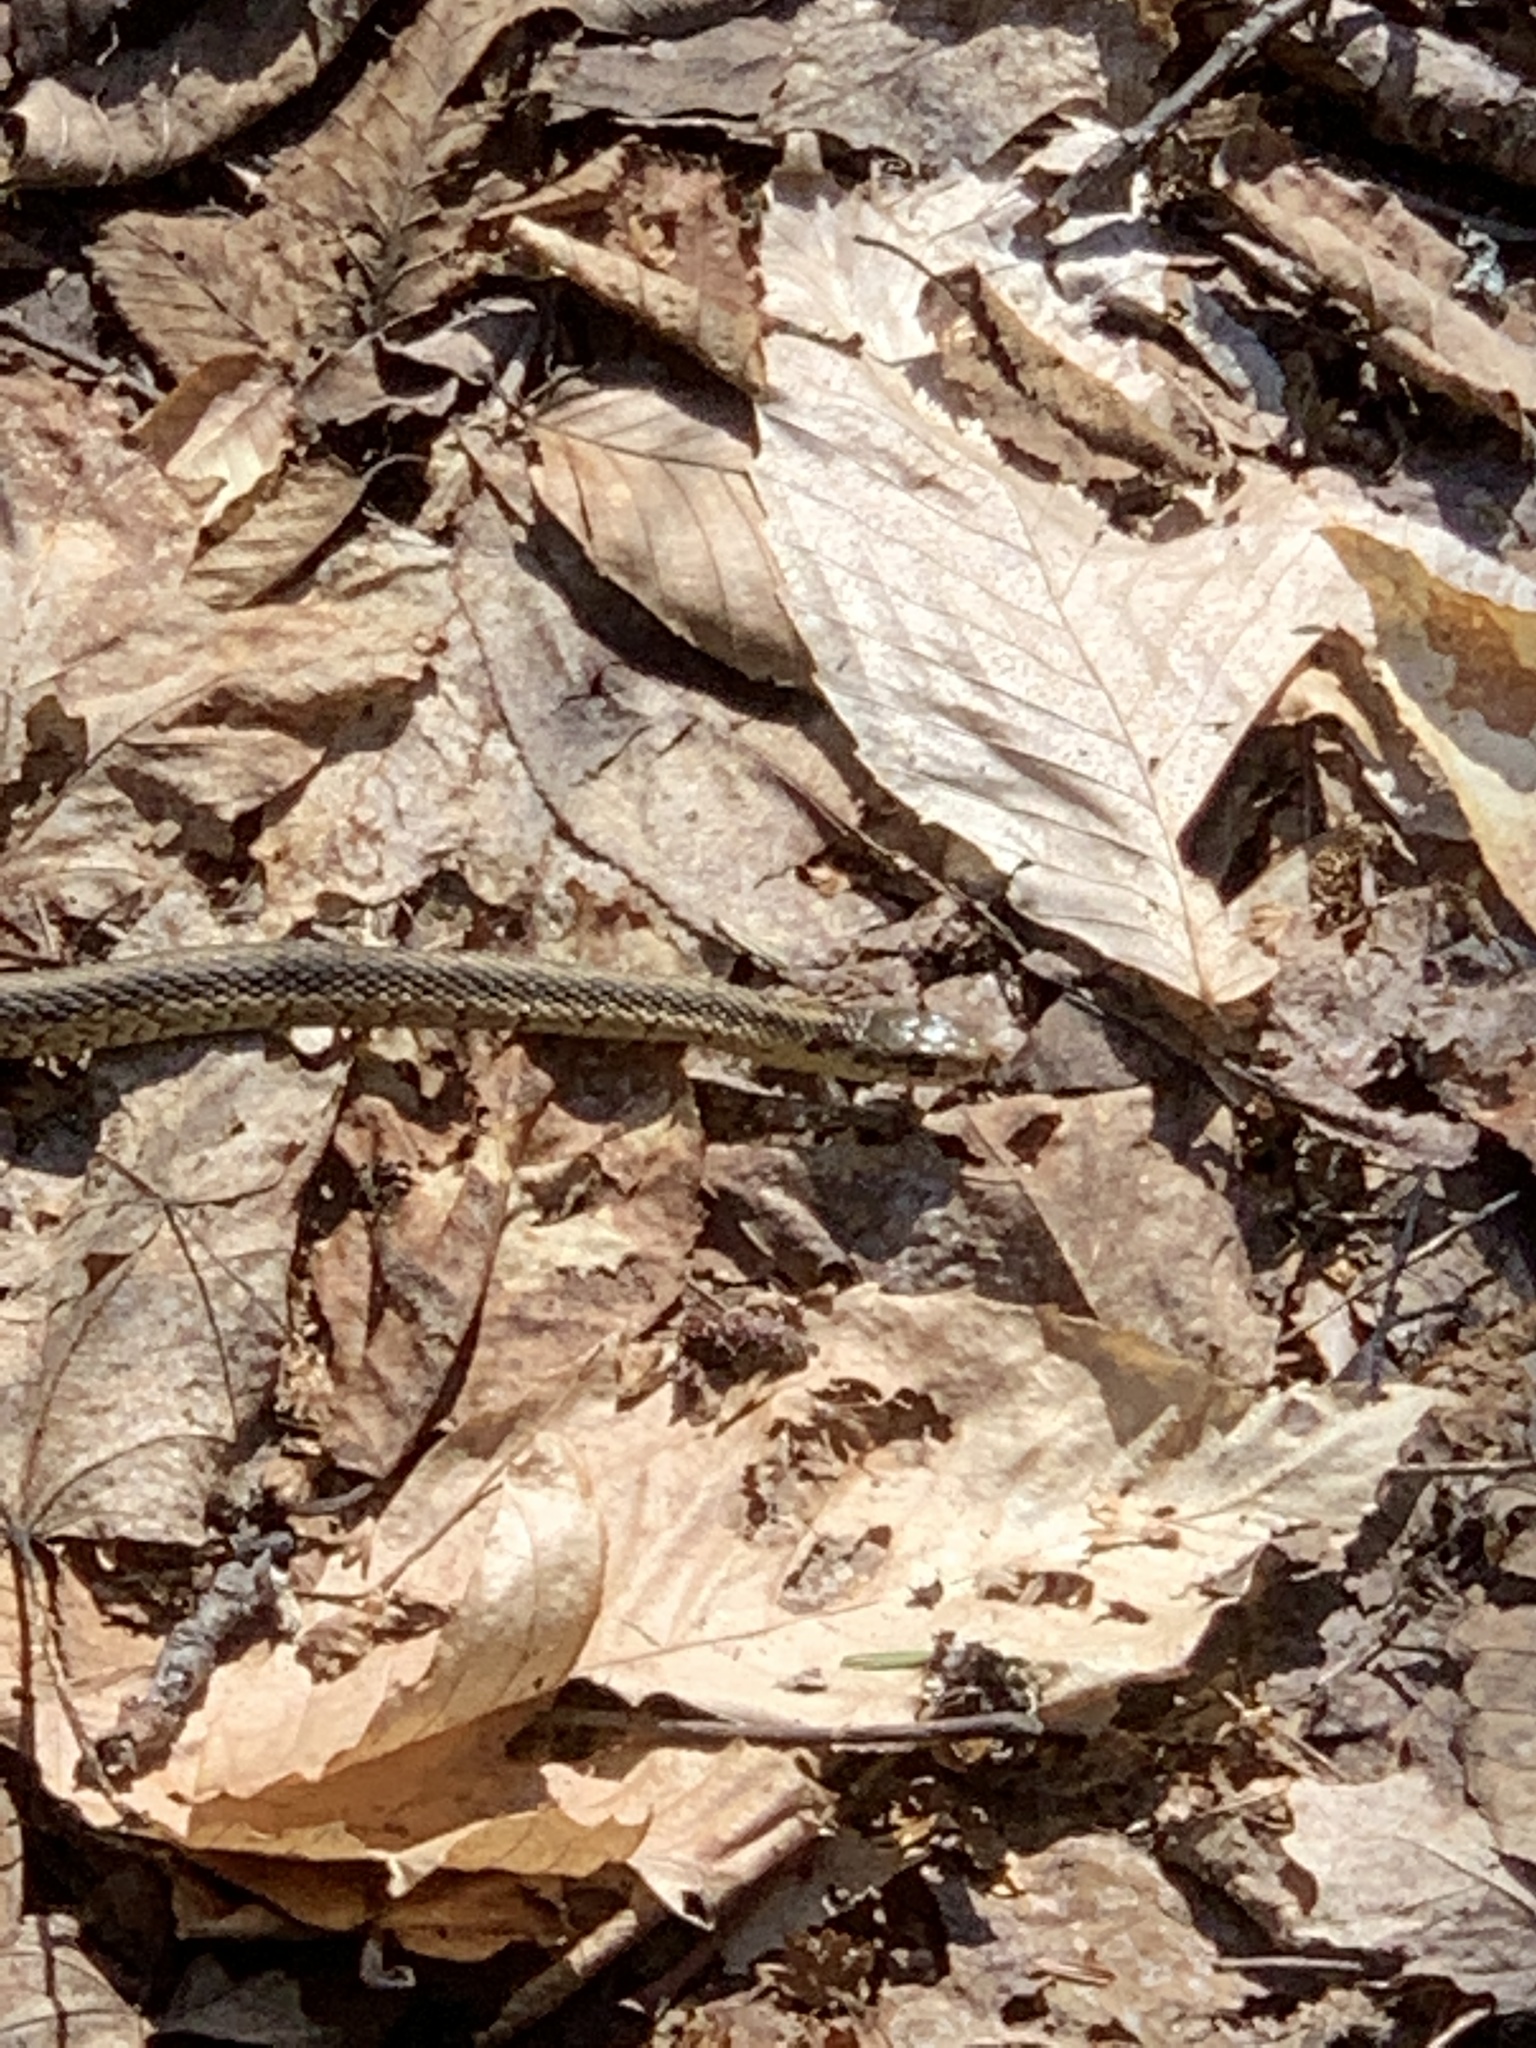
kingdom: Animalia
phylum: Chordata
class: Squamata
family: Colubridae
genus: Thamnophis
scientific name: Thamnophis sirtalis
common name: Common garter snake
